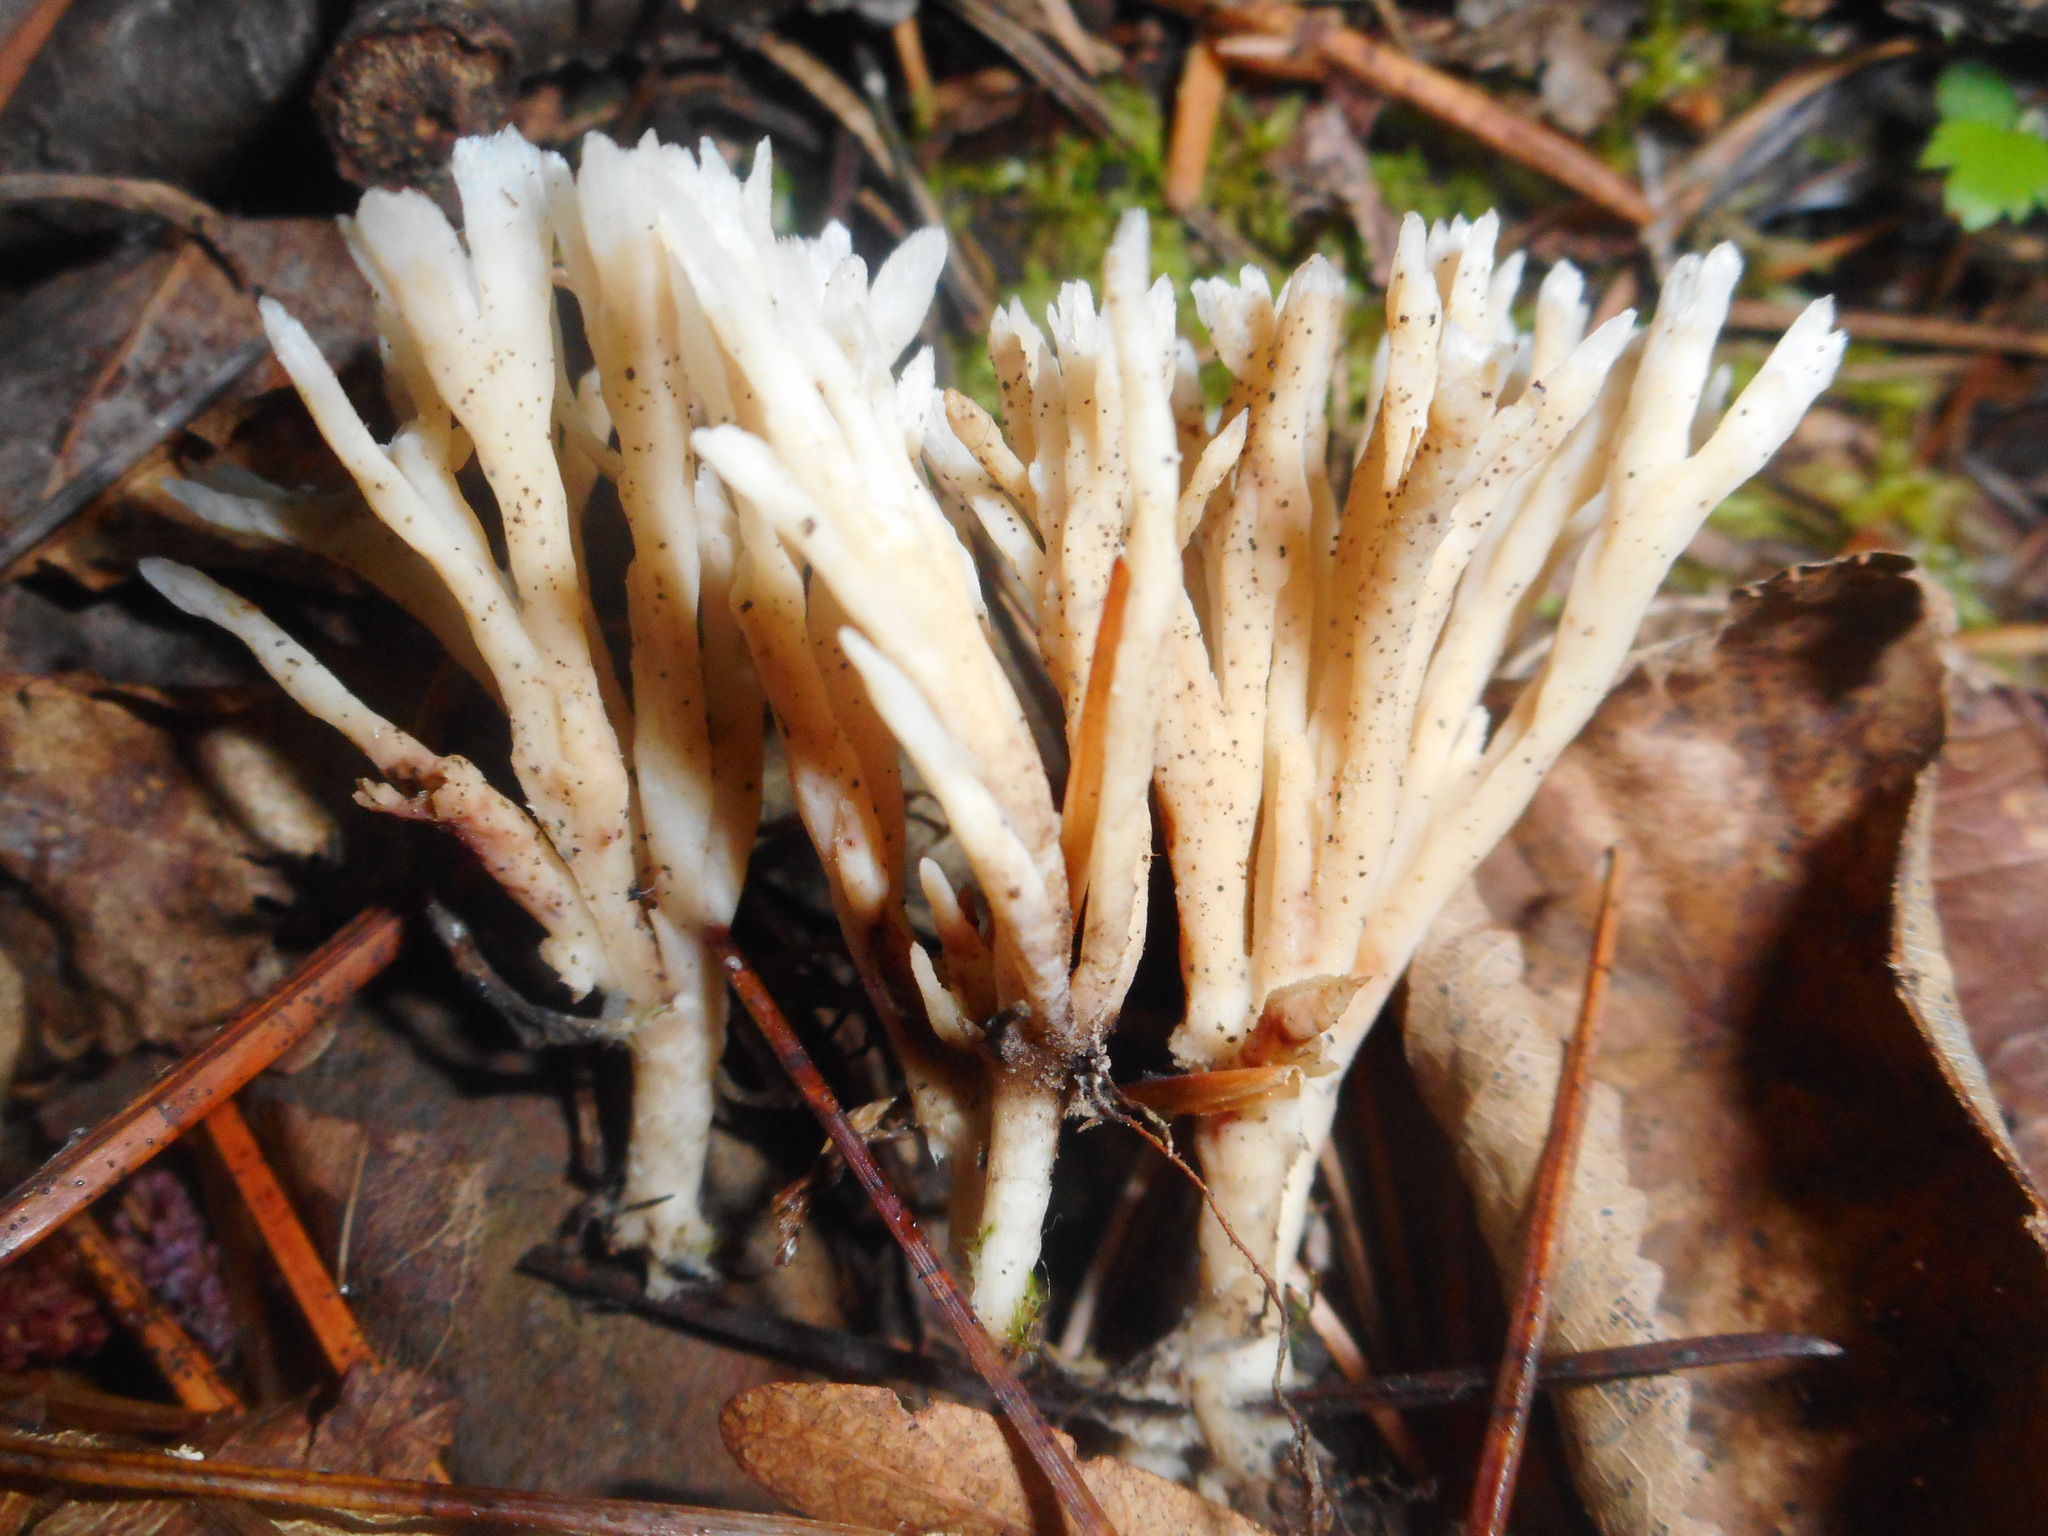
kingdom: Fungi
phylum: Basidiomycota
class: Agaricomycetes
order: Tremellodendropsidales
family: Tremellodendropsidaceae
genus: Tremellodendropsis
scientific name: Tremellodendropsis tuberosa
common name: Ashen coral
